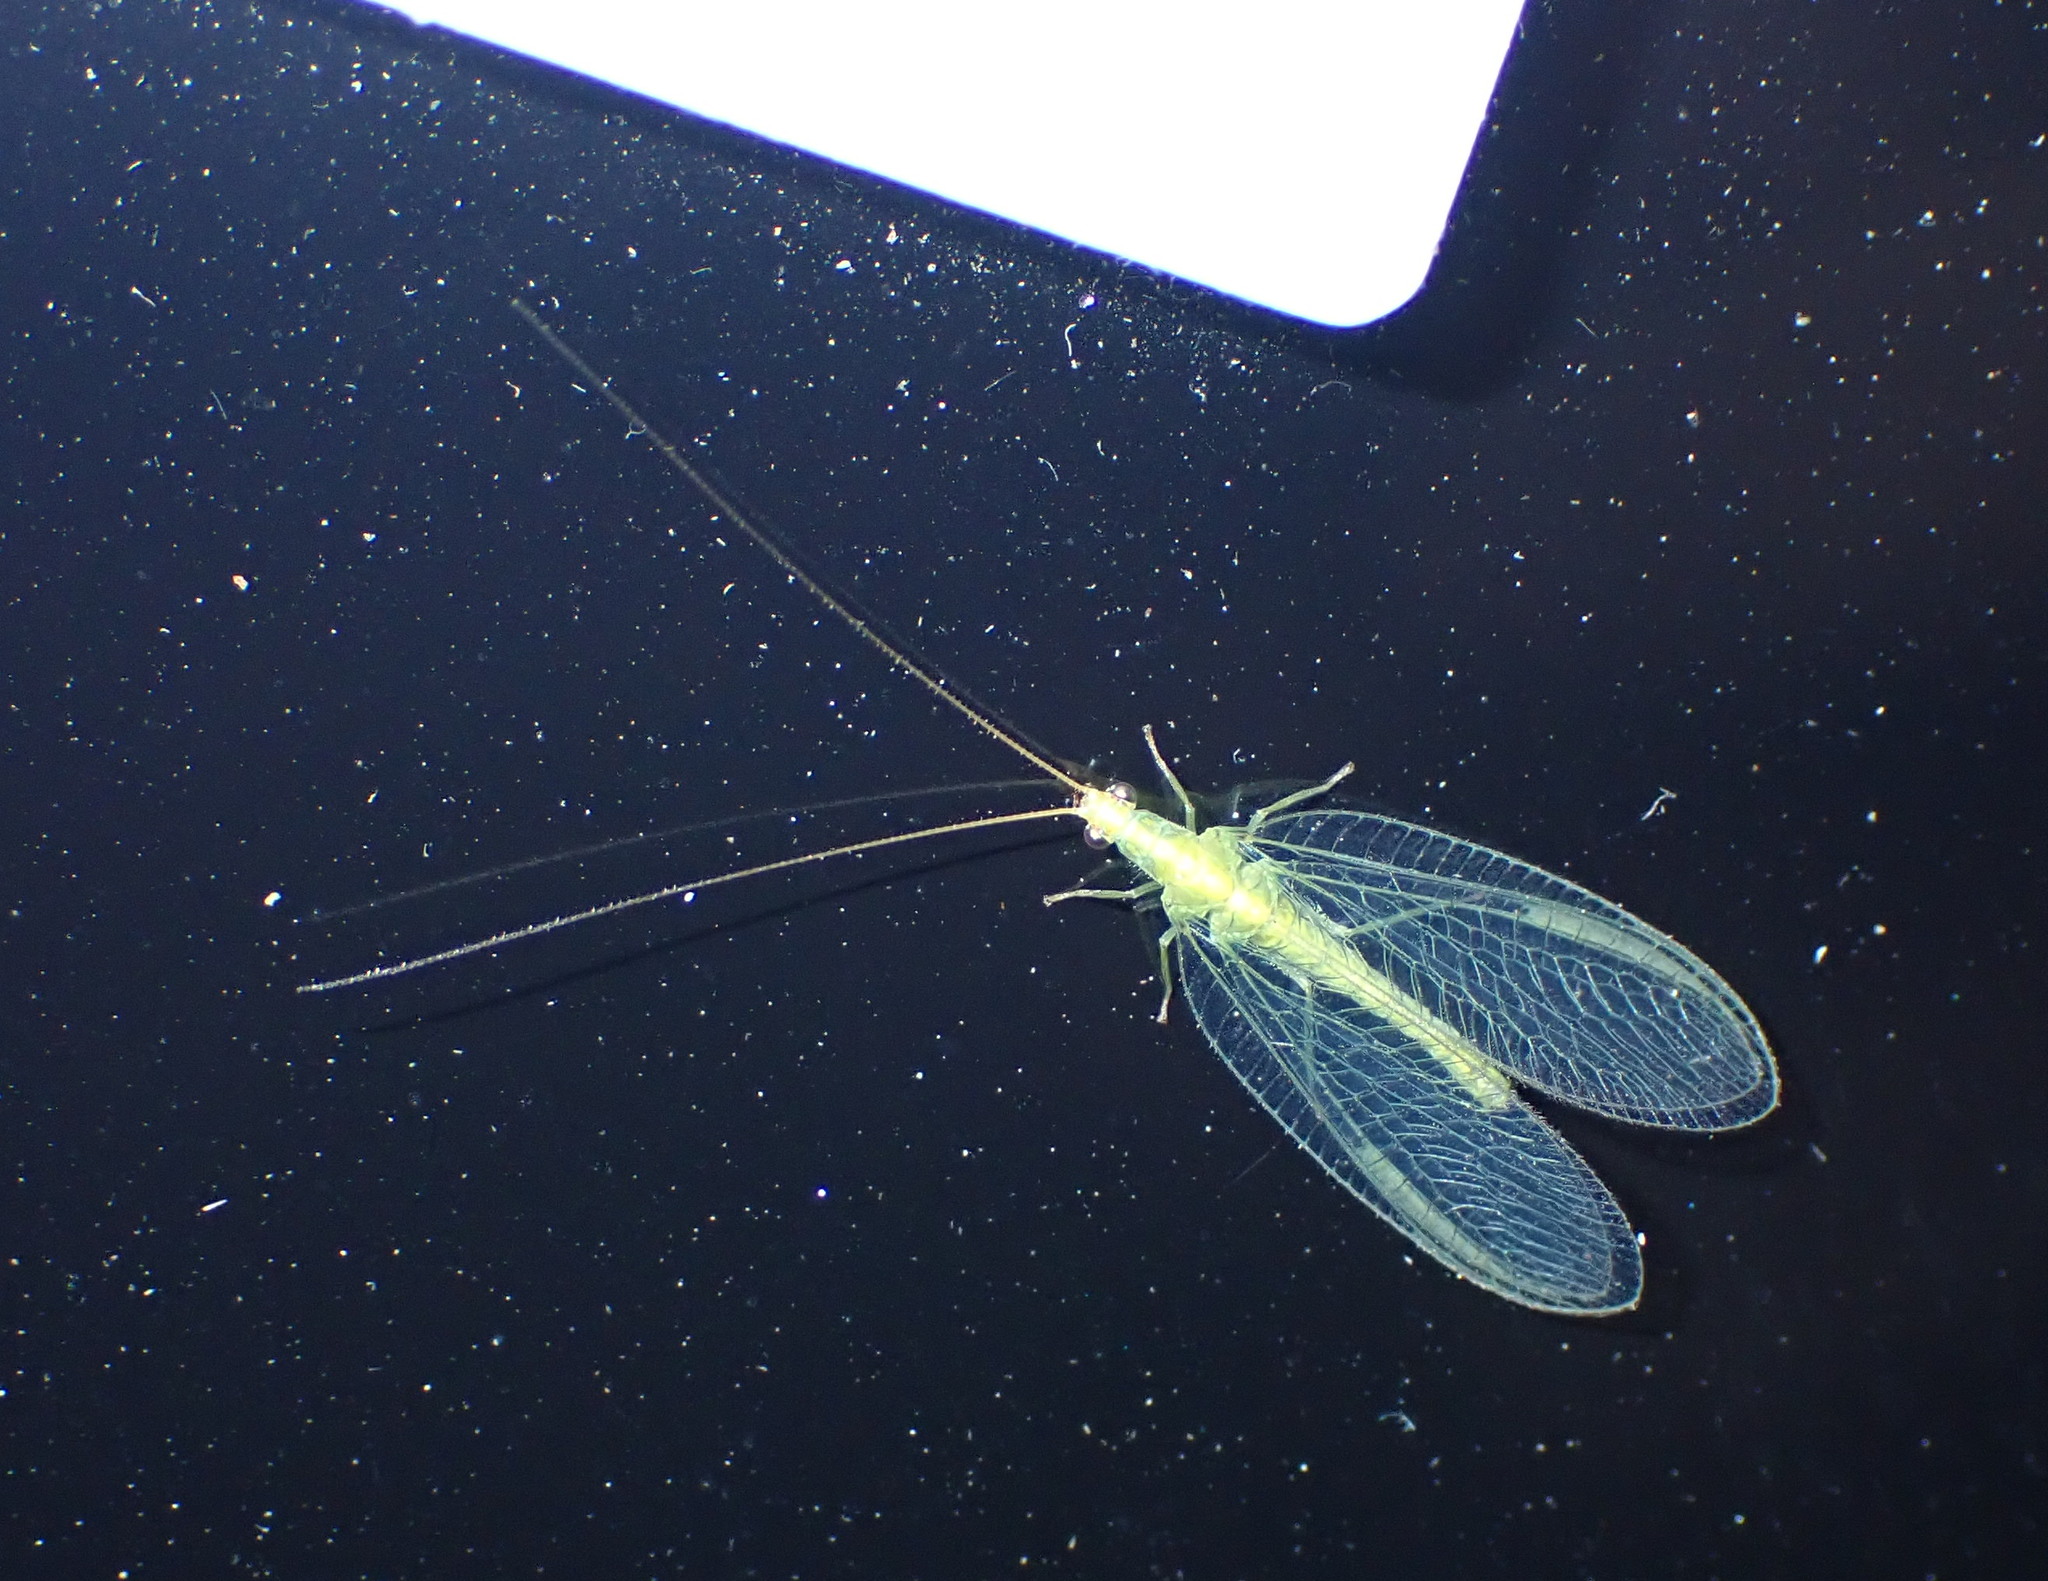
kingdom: Animalia
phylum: Arthropoda
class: Insecta
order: Neuroptera
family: Chrysopidae
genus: Mallada
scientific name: Mallada basalis
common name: Green lacewing
